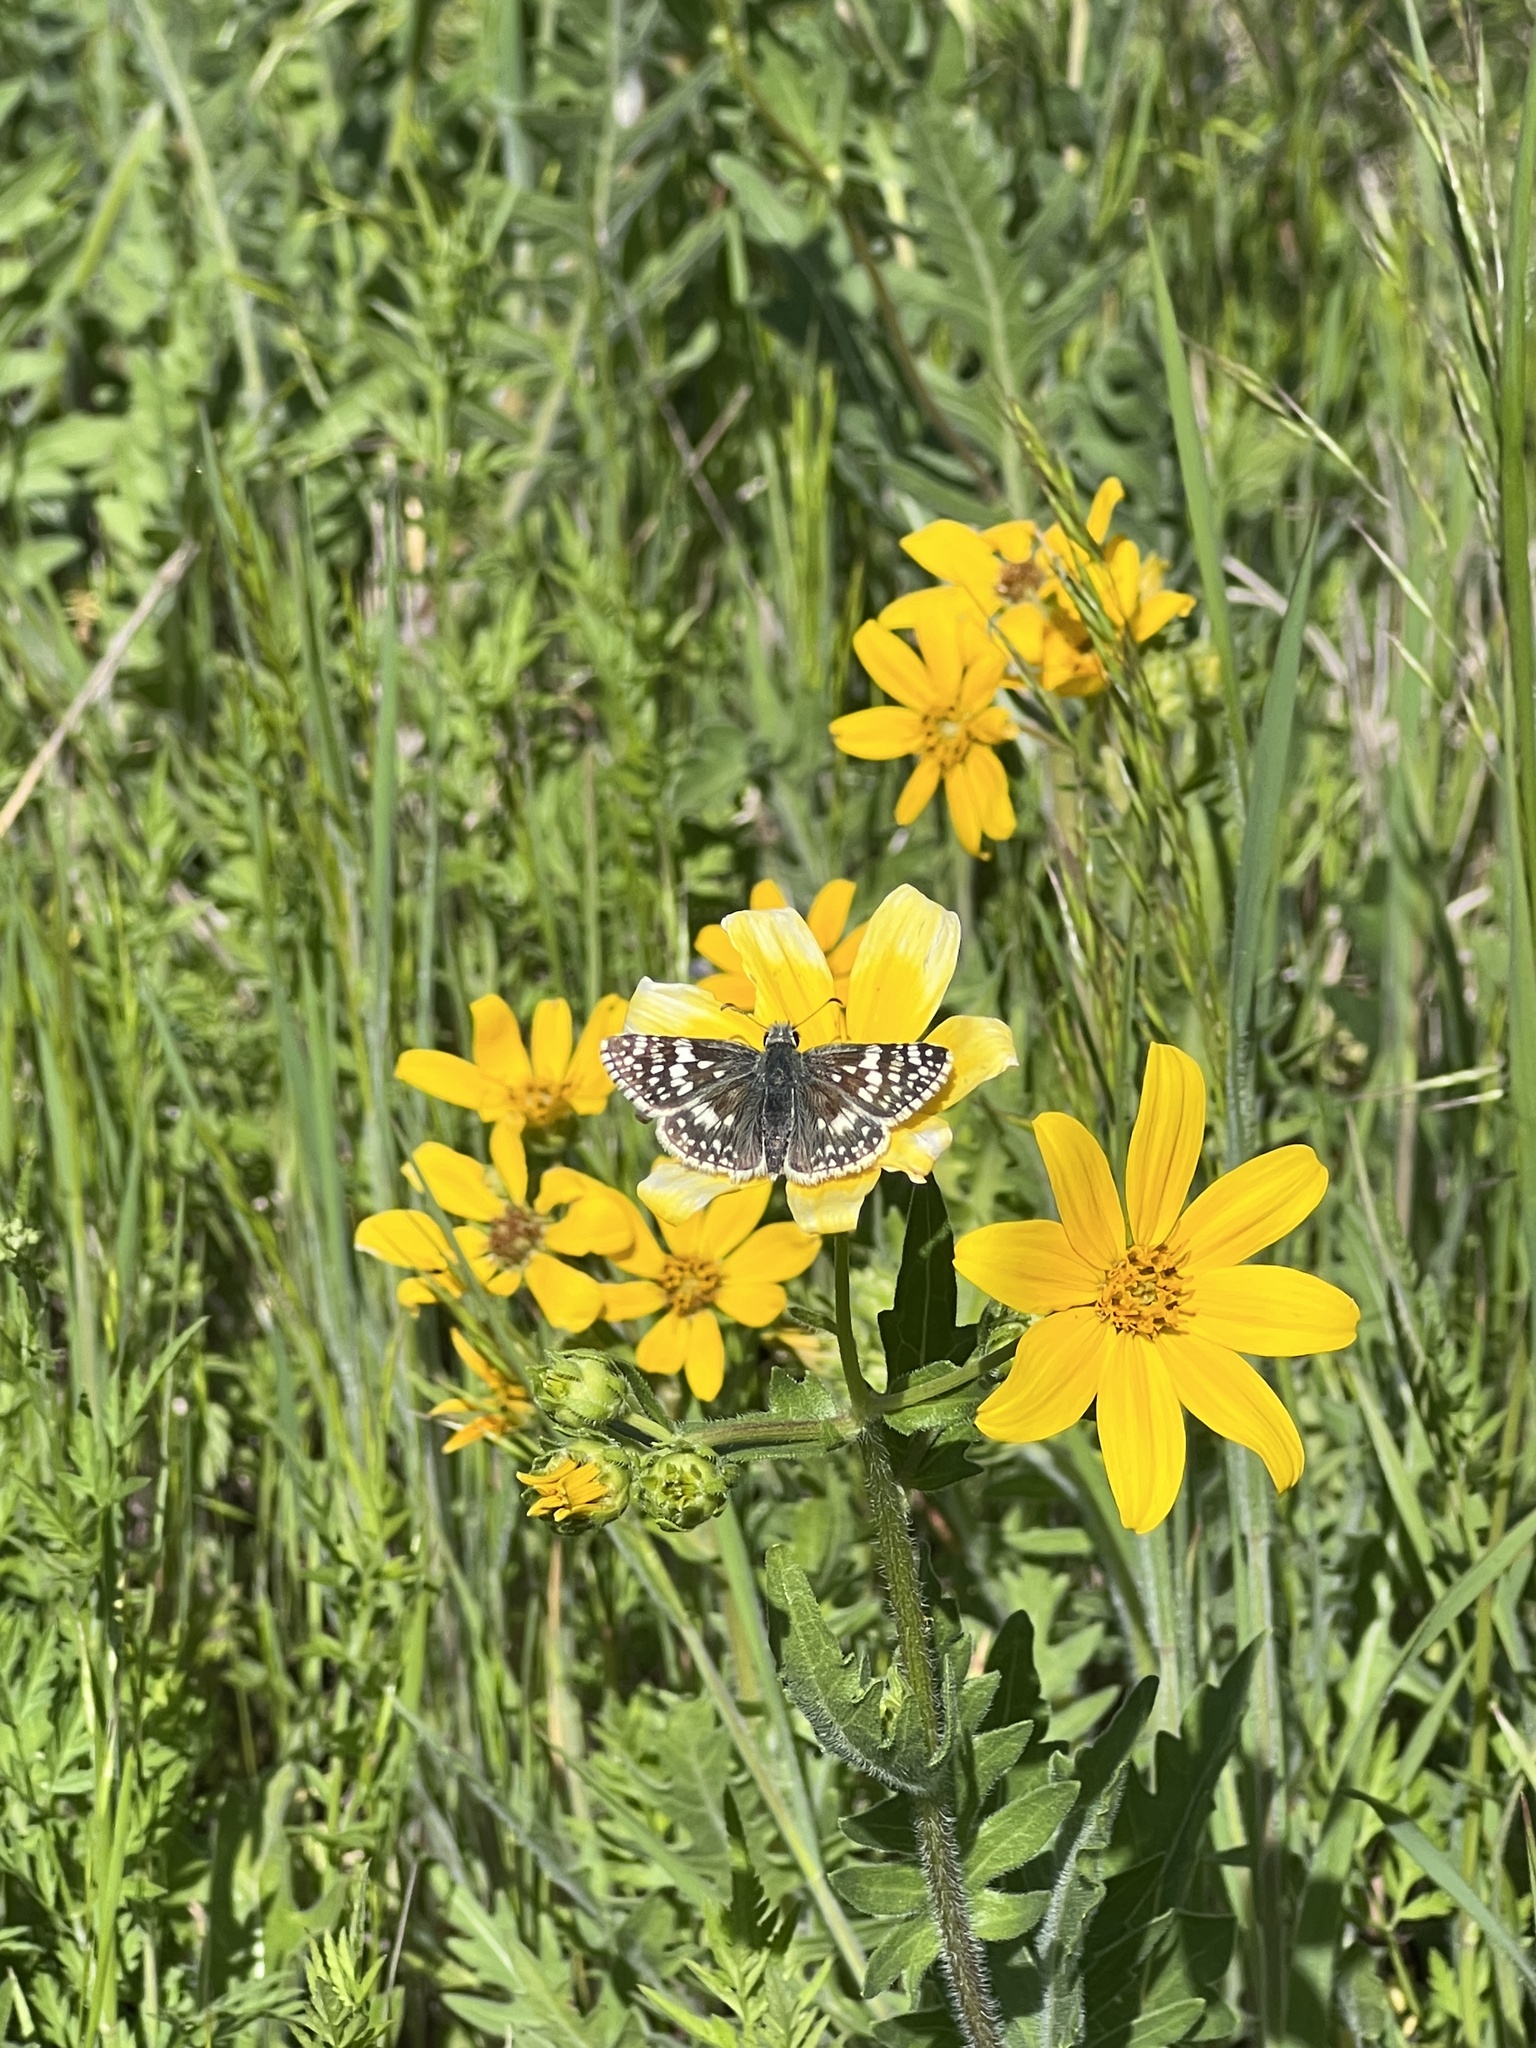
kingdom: Animalia
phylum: Arthropoda
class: Insecta
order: Lepidoptera
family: Hesperiidae
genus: Burnsius
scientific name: Burnsius communis
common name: Common checkered-skipper
